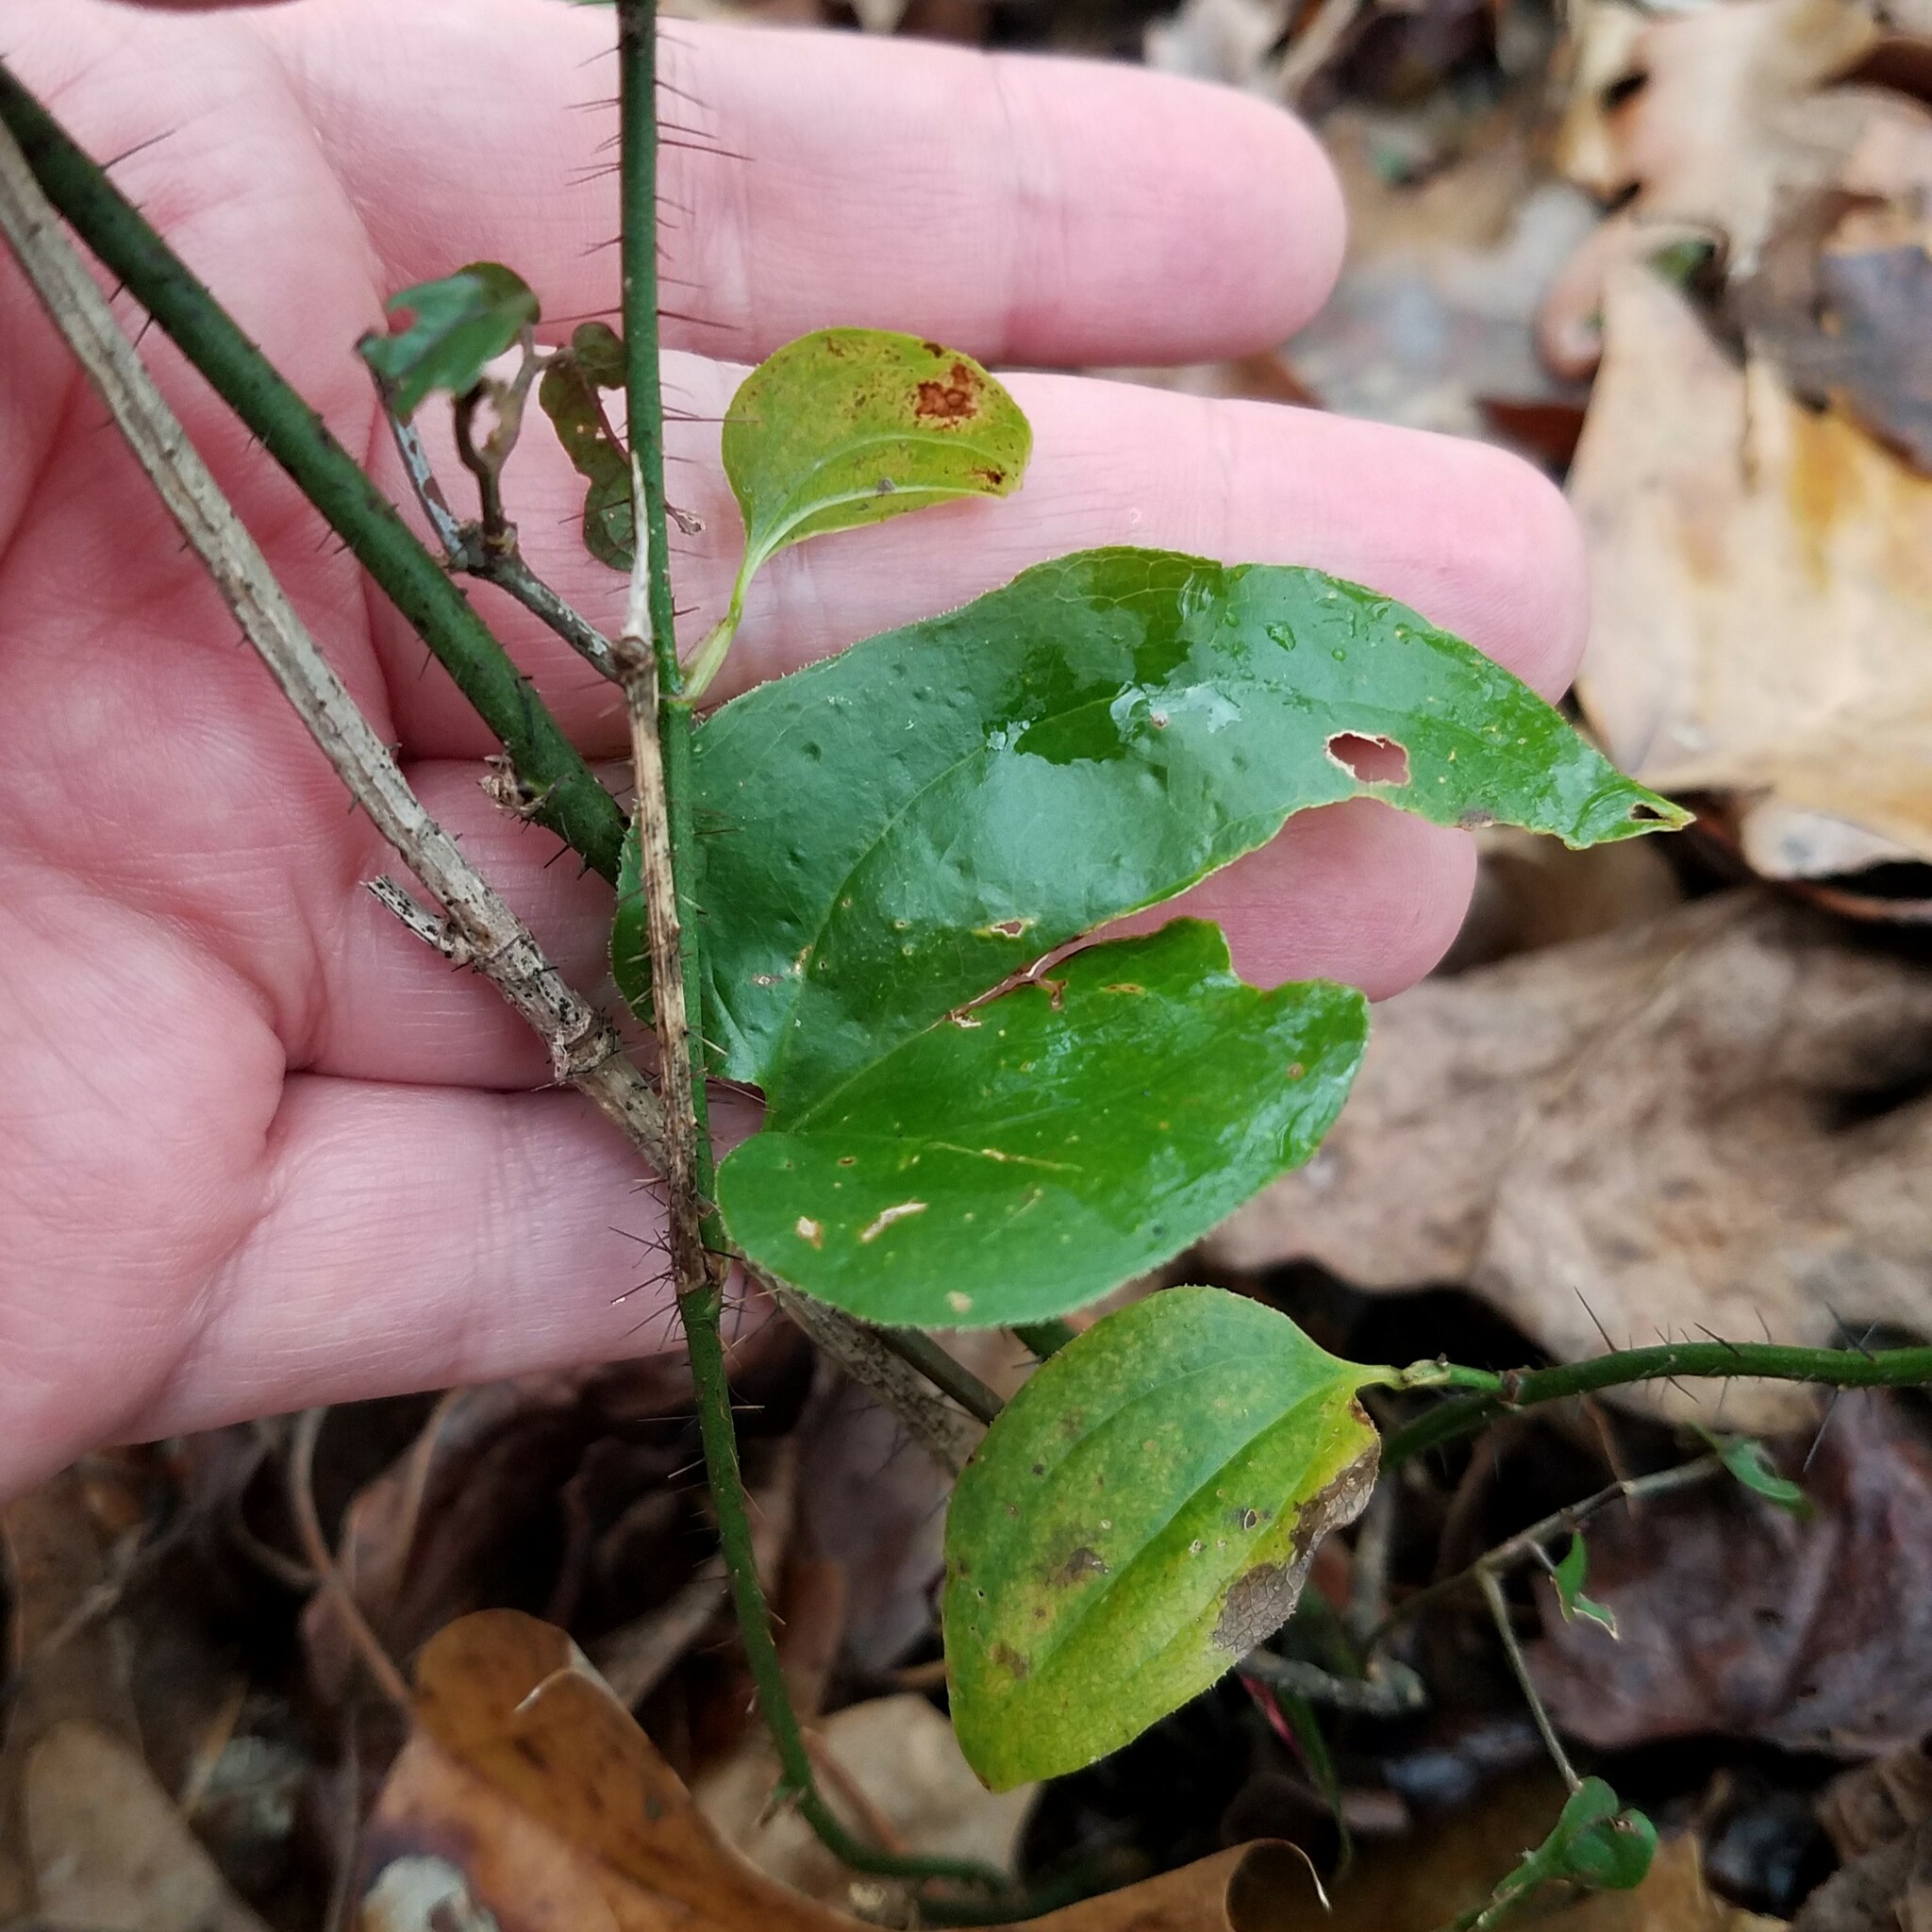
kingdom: Plantae
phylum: Tracheophyta
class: Liliopsida
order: Liliales
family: Smilacaceae
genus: Smilax
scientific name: Smilax tamnoides
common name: Hellfetter
